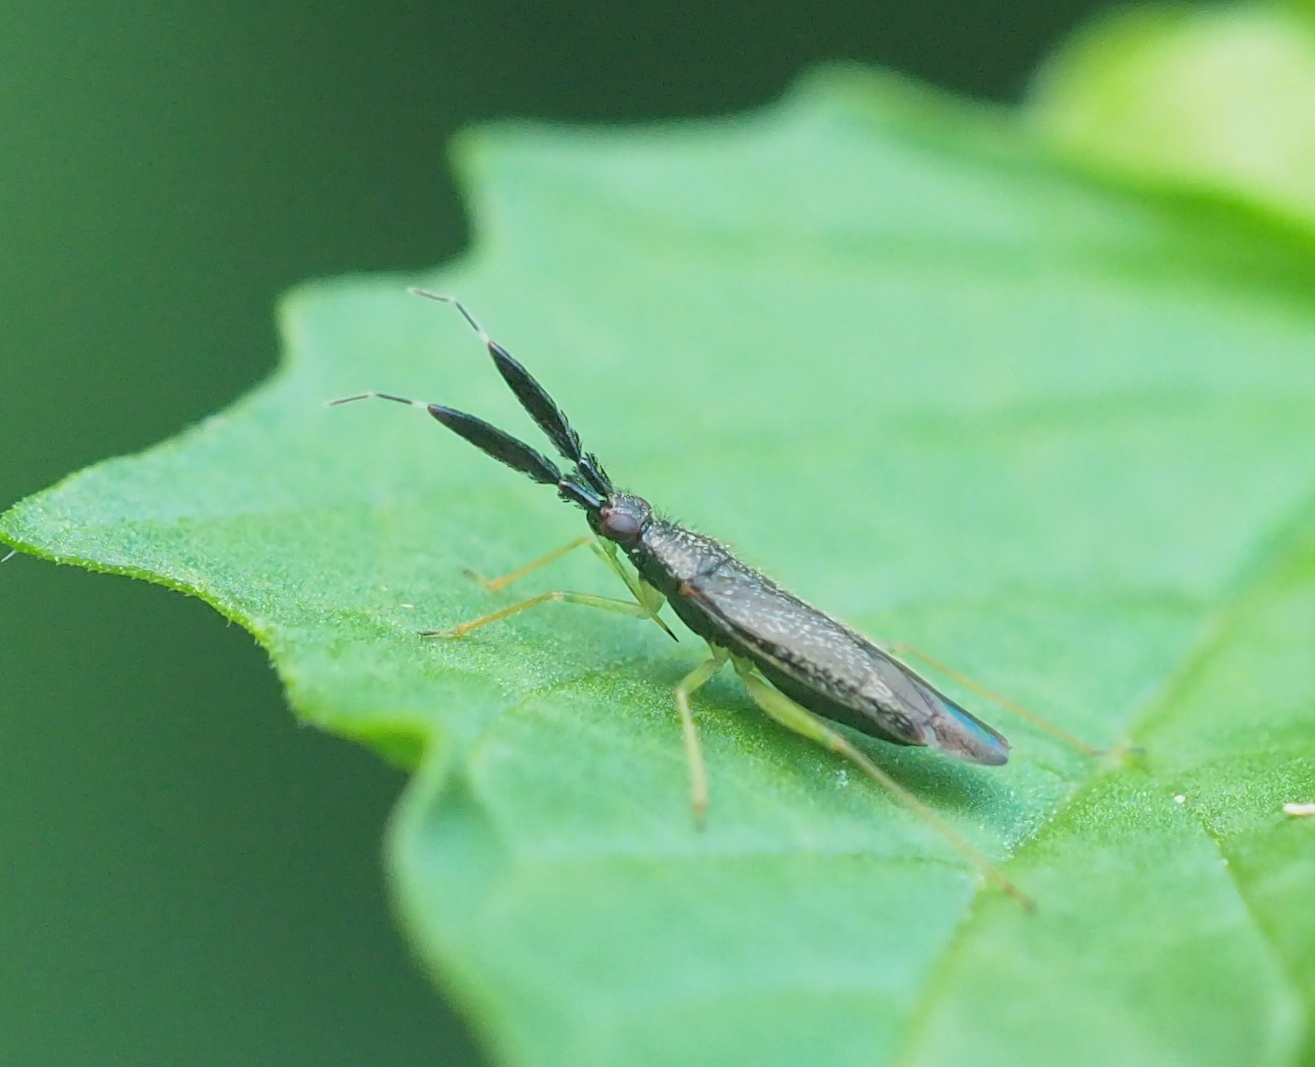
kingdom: Animalia
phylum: Arthropoda
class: Insecta
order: Hemiptera
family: Miridae
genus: Heterotoma
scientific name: Heterotoma planicornis
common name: Plant bug
